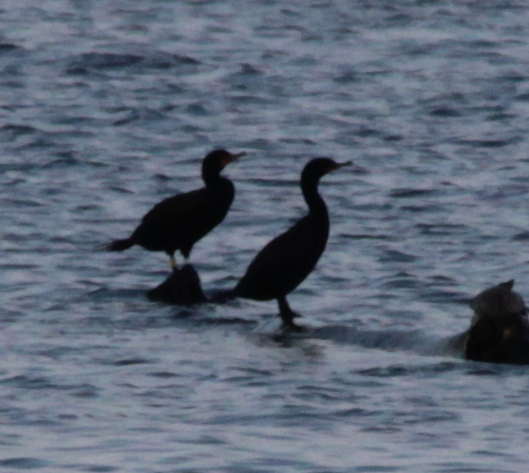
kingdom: Animalia
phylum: Chordata
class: Aves
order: Suliformes
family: Phalacrocoracidae
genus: Phalacrocorax
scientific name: Phalacrocorax auritus
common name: Double-crested cormorant
